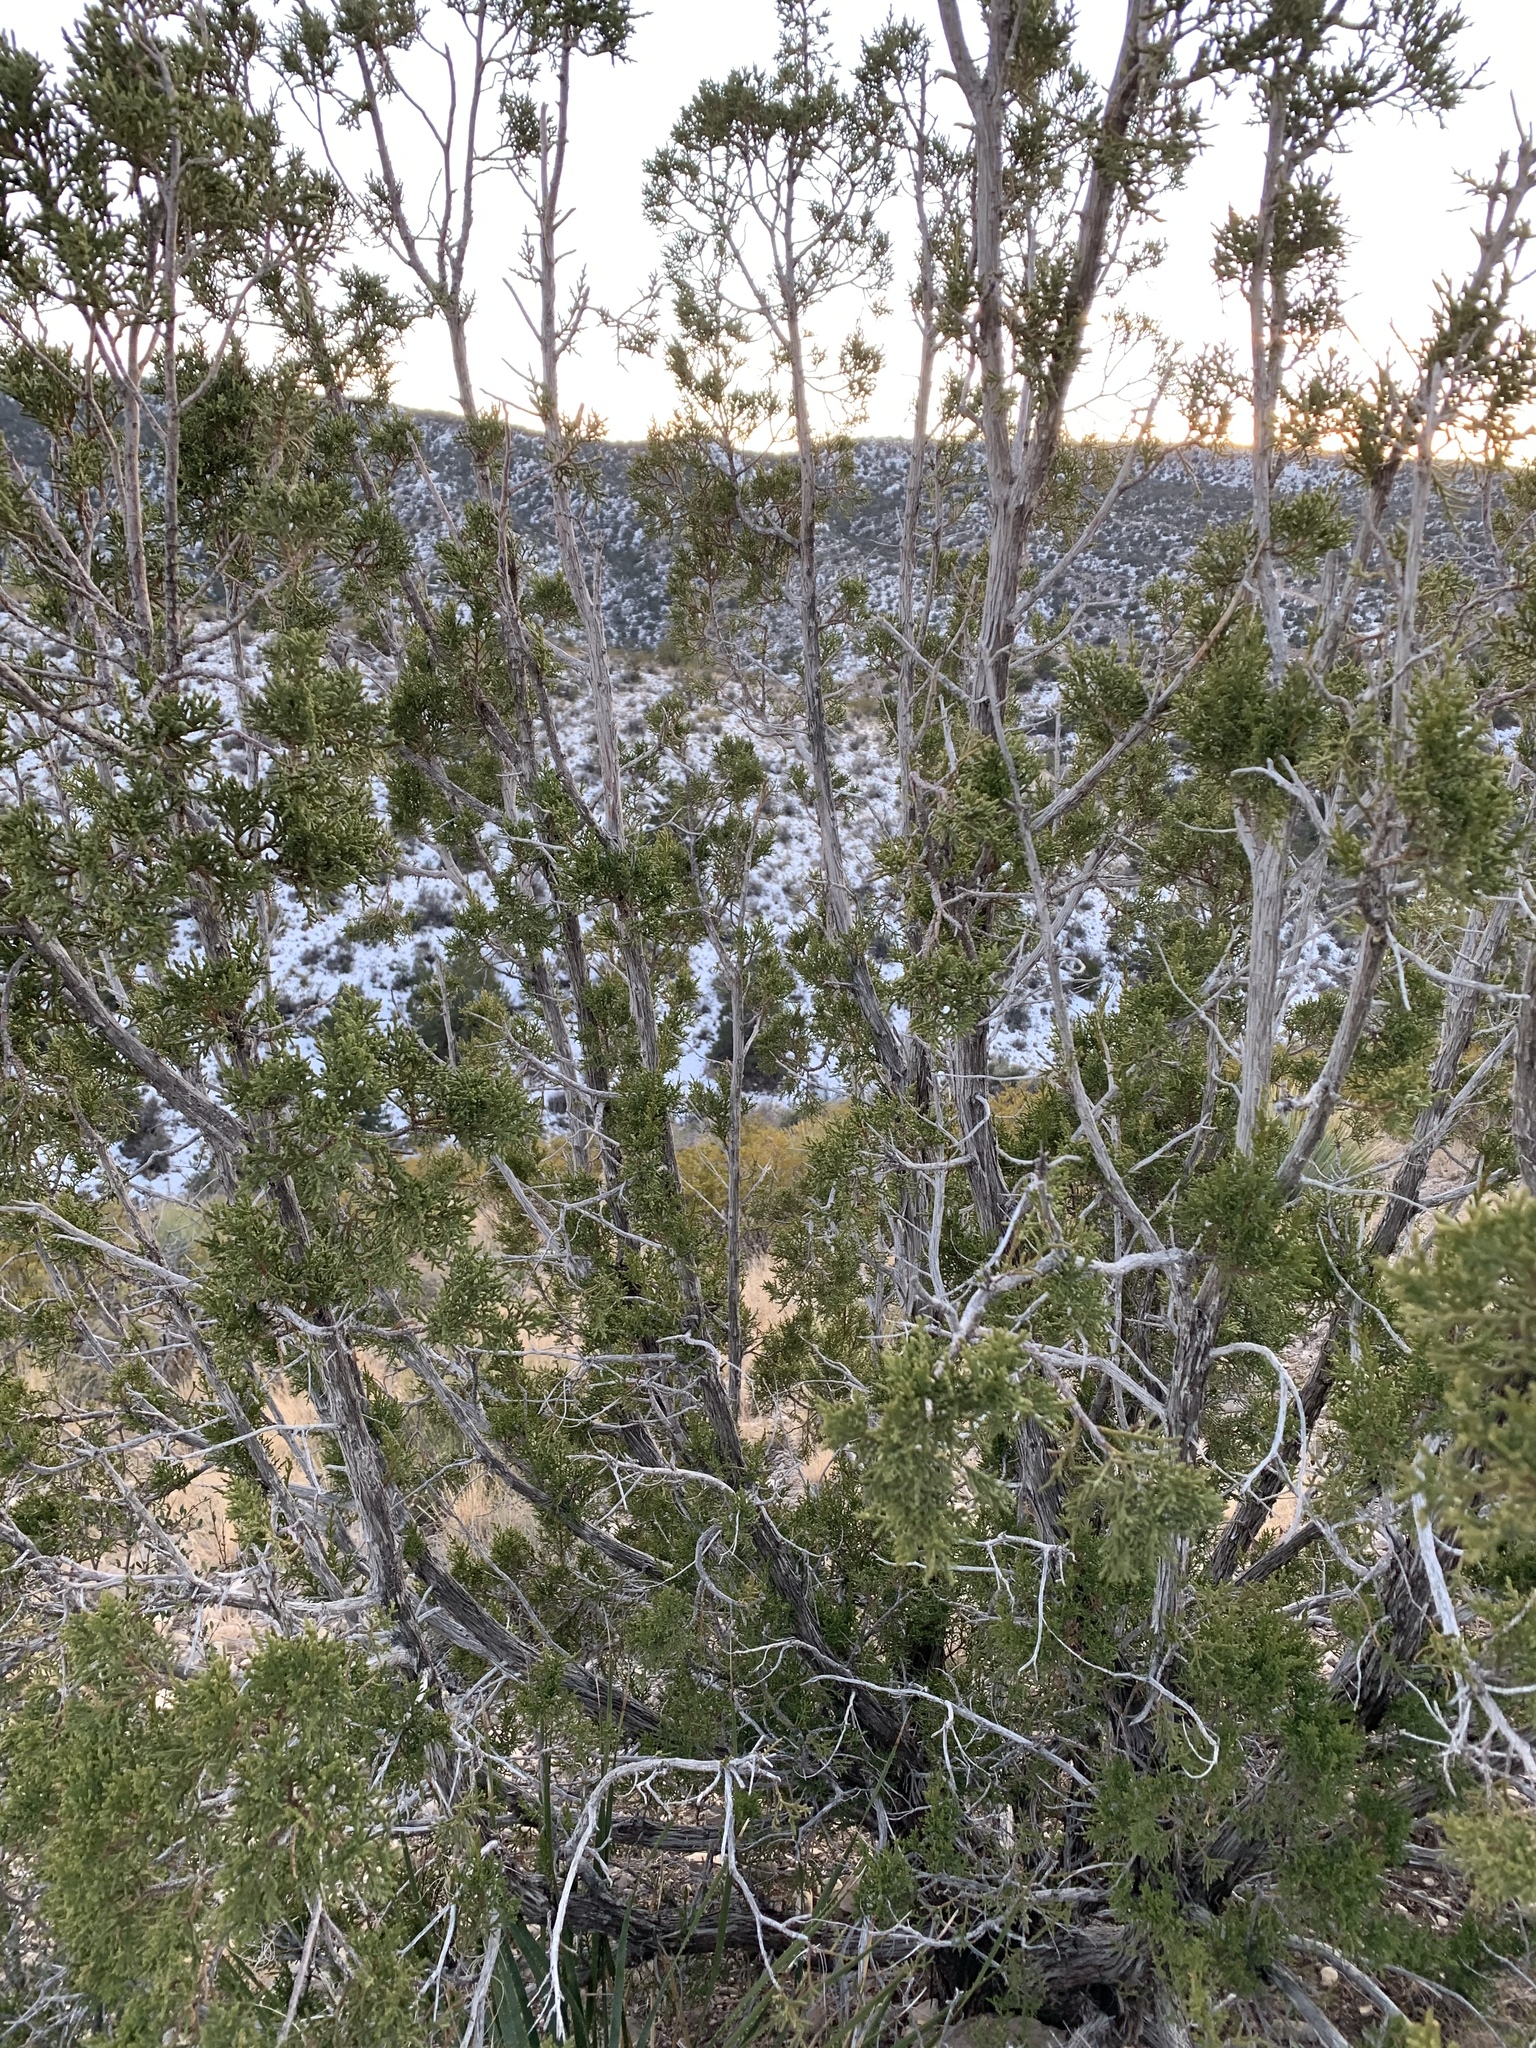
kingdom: Plantae
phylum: Tracheophyta
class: Pinopsida
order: Pinales
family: Cupressaceae
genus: Juniperus
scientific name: Juniperus monosperma
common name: One-seed juniper
